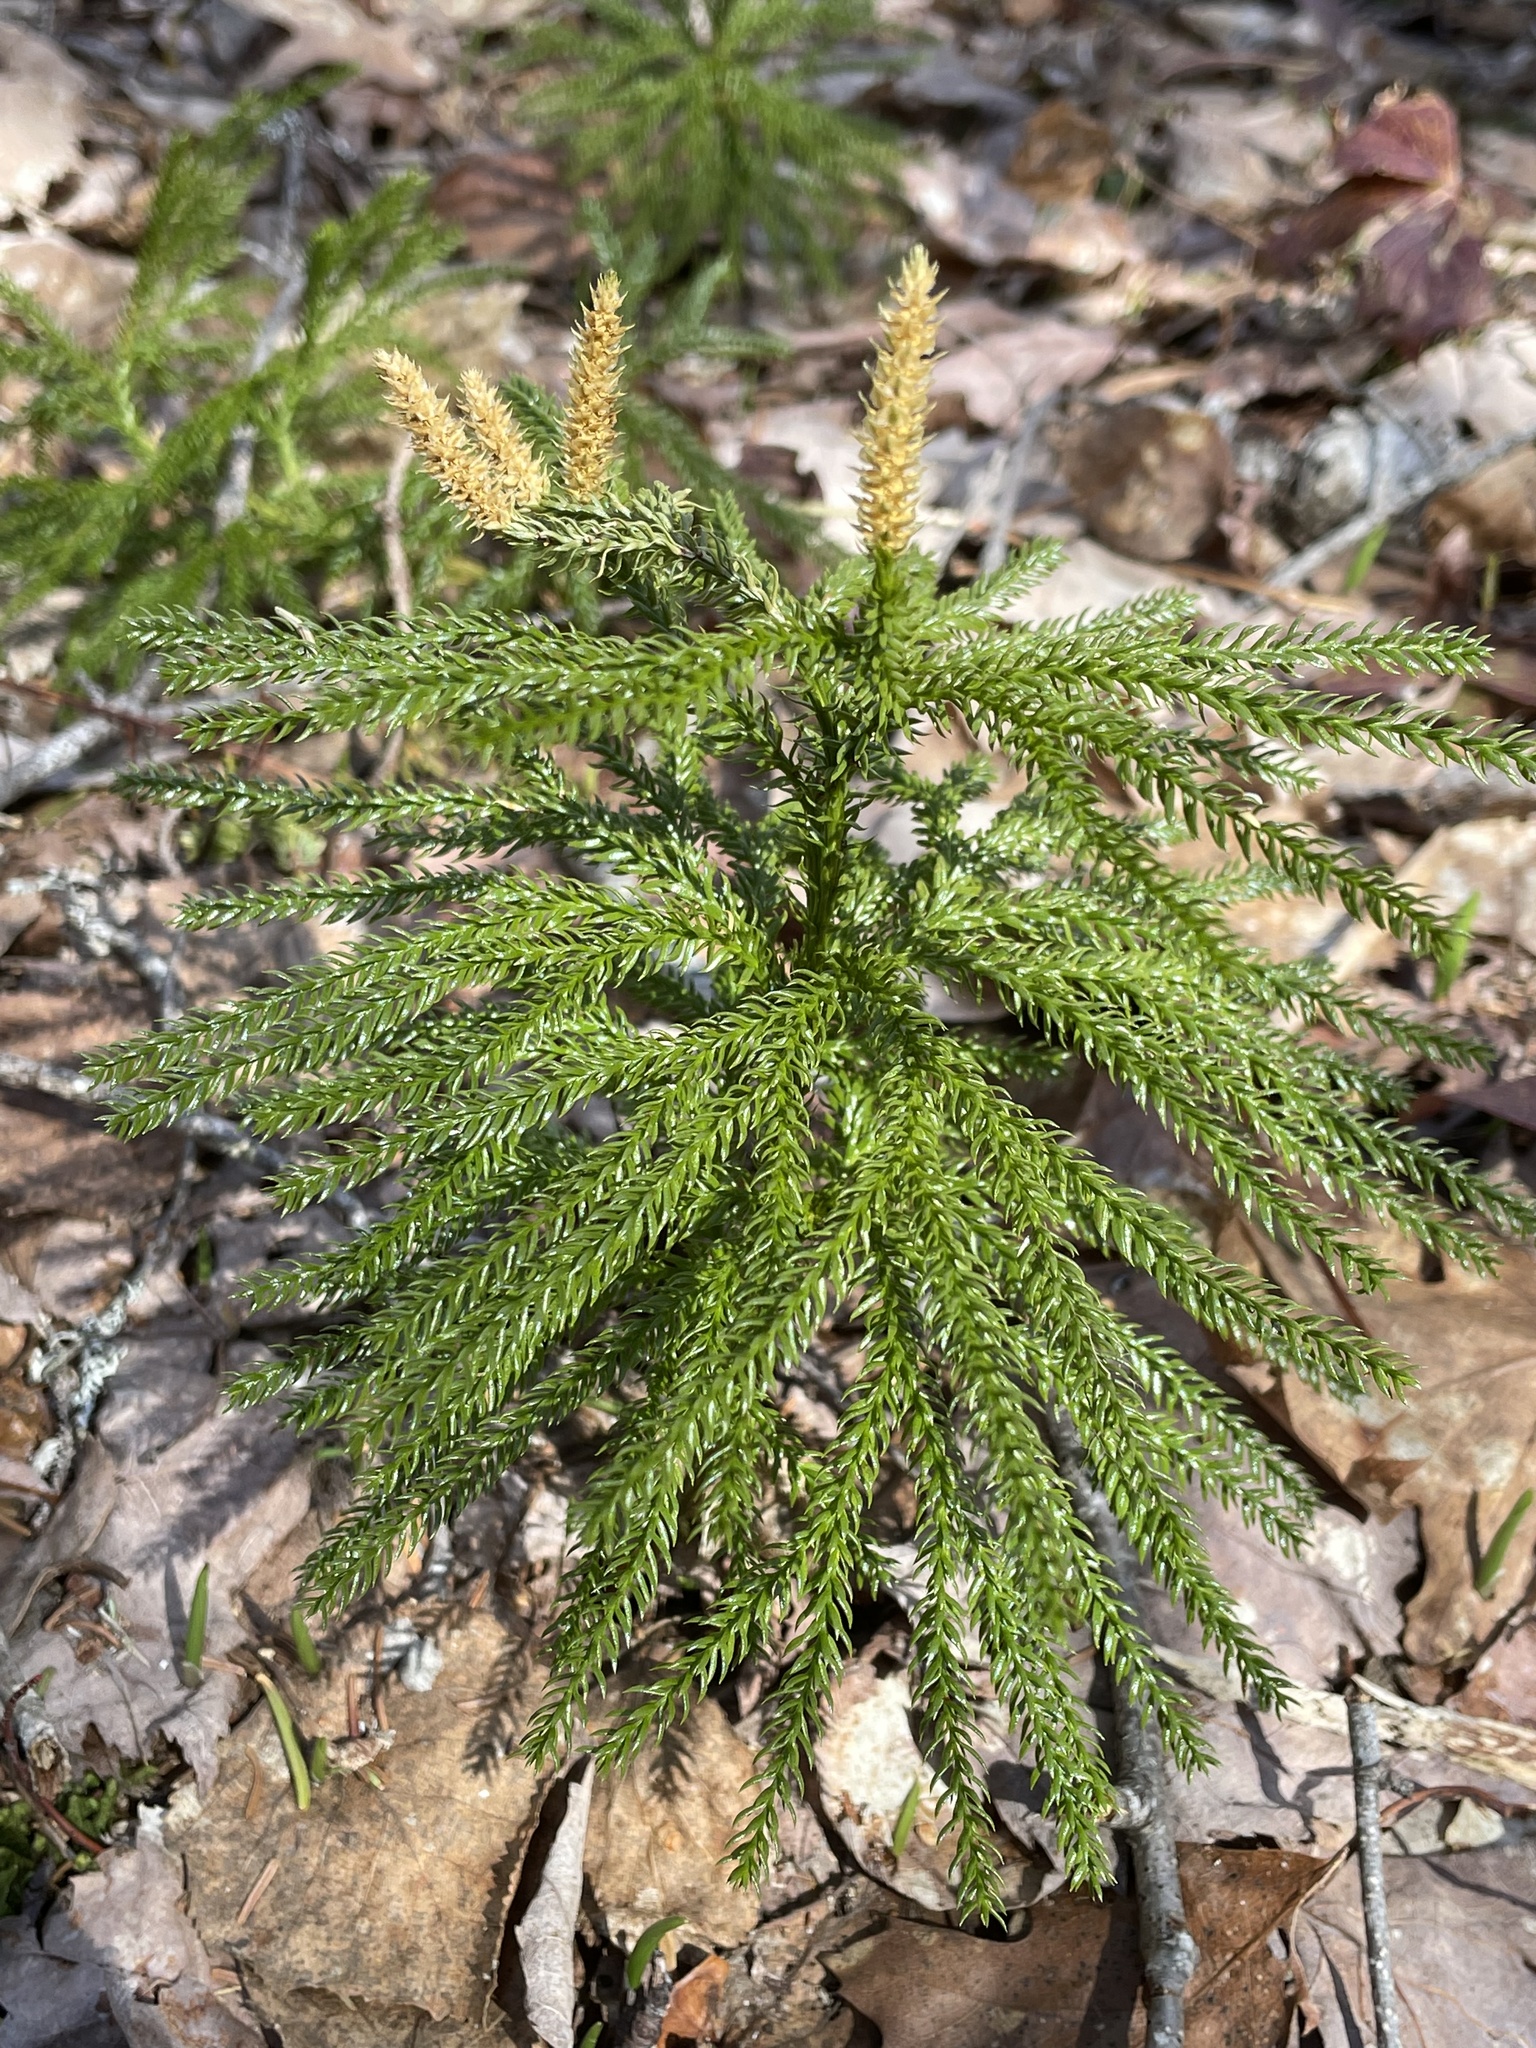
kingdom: Plantae
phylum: Tracheophyta
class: Lycopodiopsida
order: Lycopodiales
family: Lycopodiaceae
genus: Dendrolycopodium
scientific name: Dendrolycopodium dendroideum
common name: Northern tree-clubmoss
